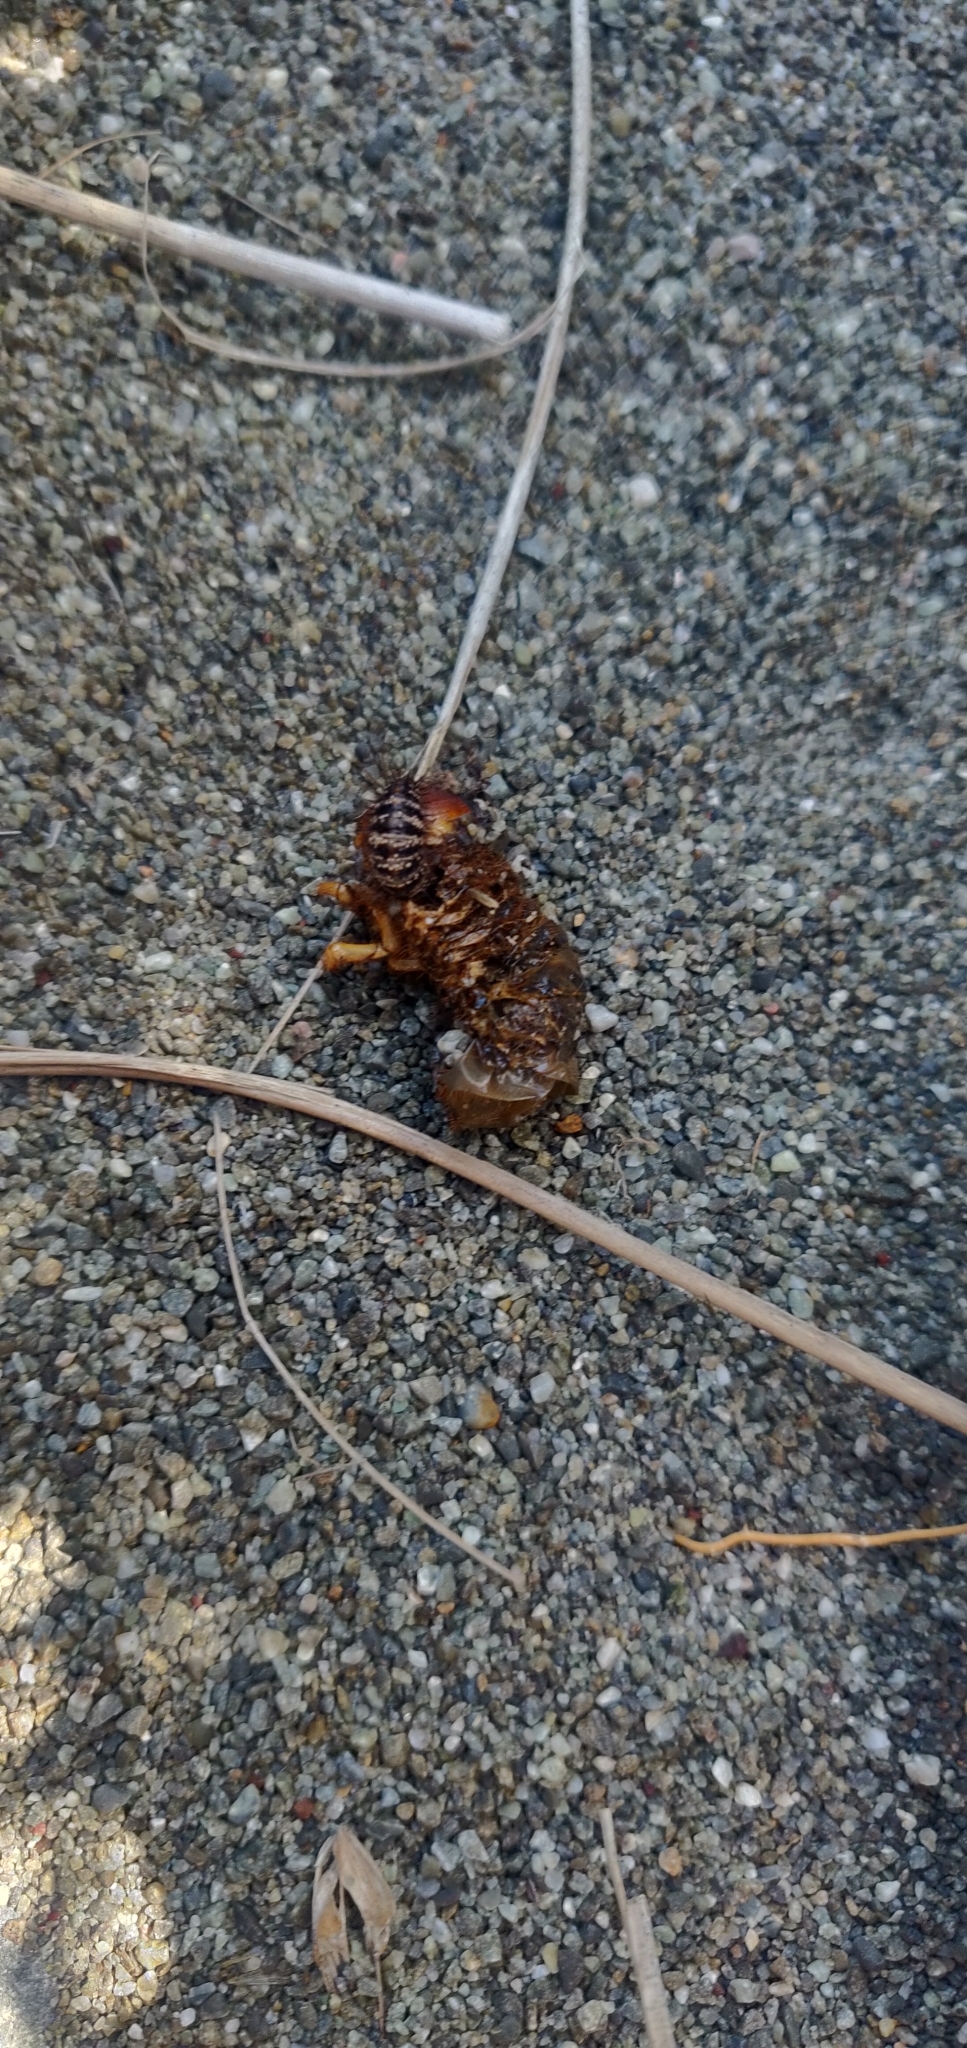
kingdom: Animalia
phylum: Arthropoda
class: Insecta
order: Coleoptera
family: Scarabaeidae
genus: Pericoptus
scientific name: Pericoptus truncatus
